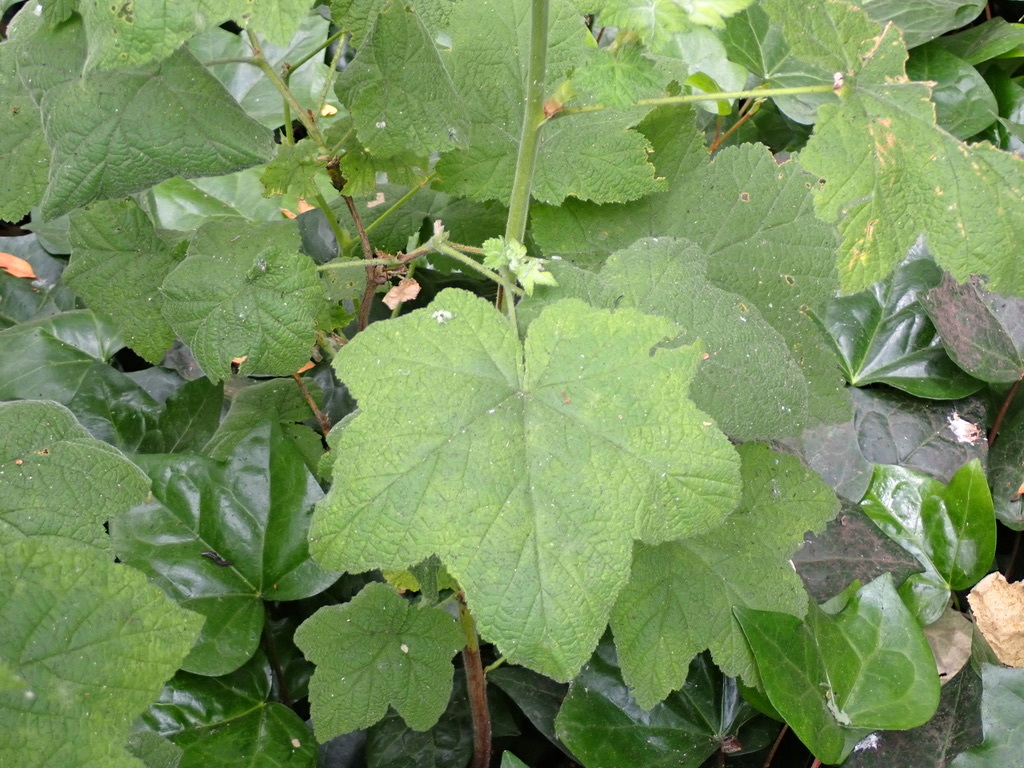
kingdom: Plantae
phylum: Tracheophyta
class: Magnoliopsida
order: Rosales
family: Rosaceae
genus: Rubus
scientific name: Rubus parviflorus
